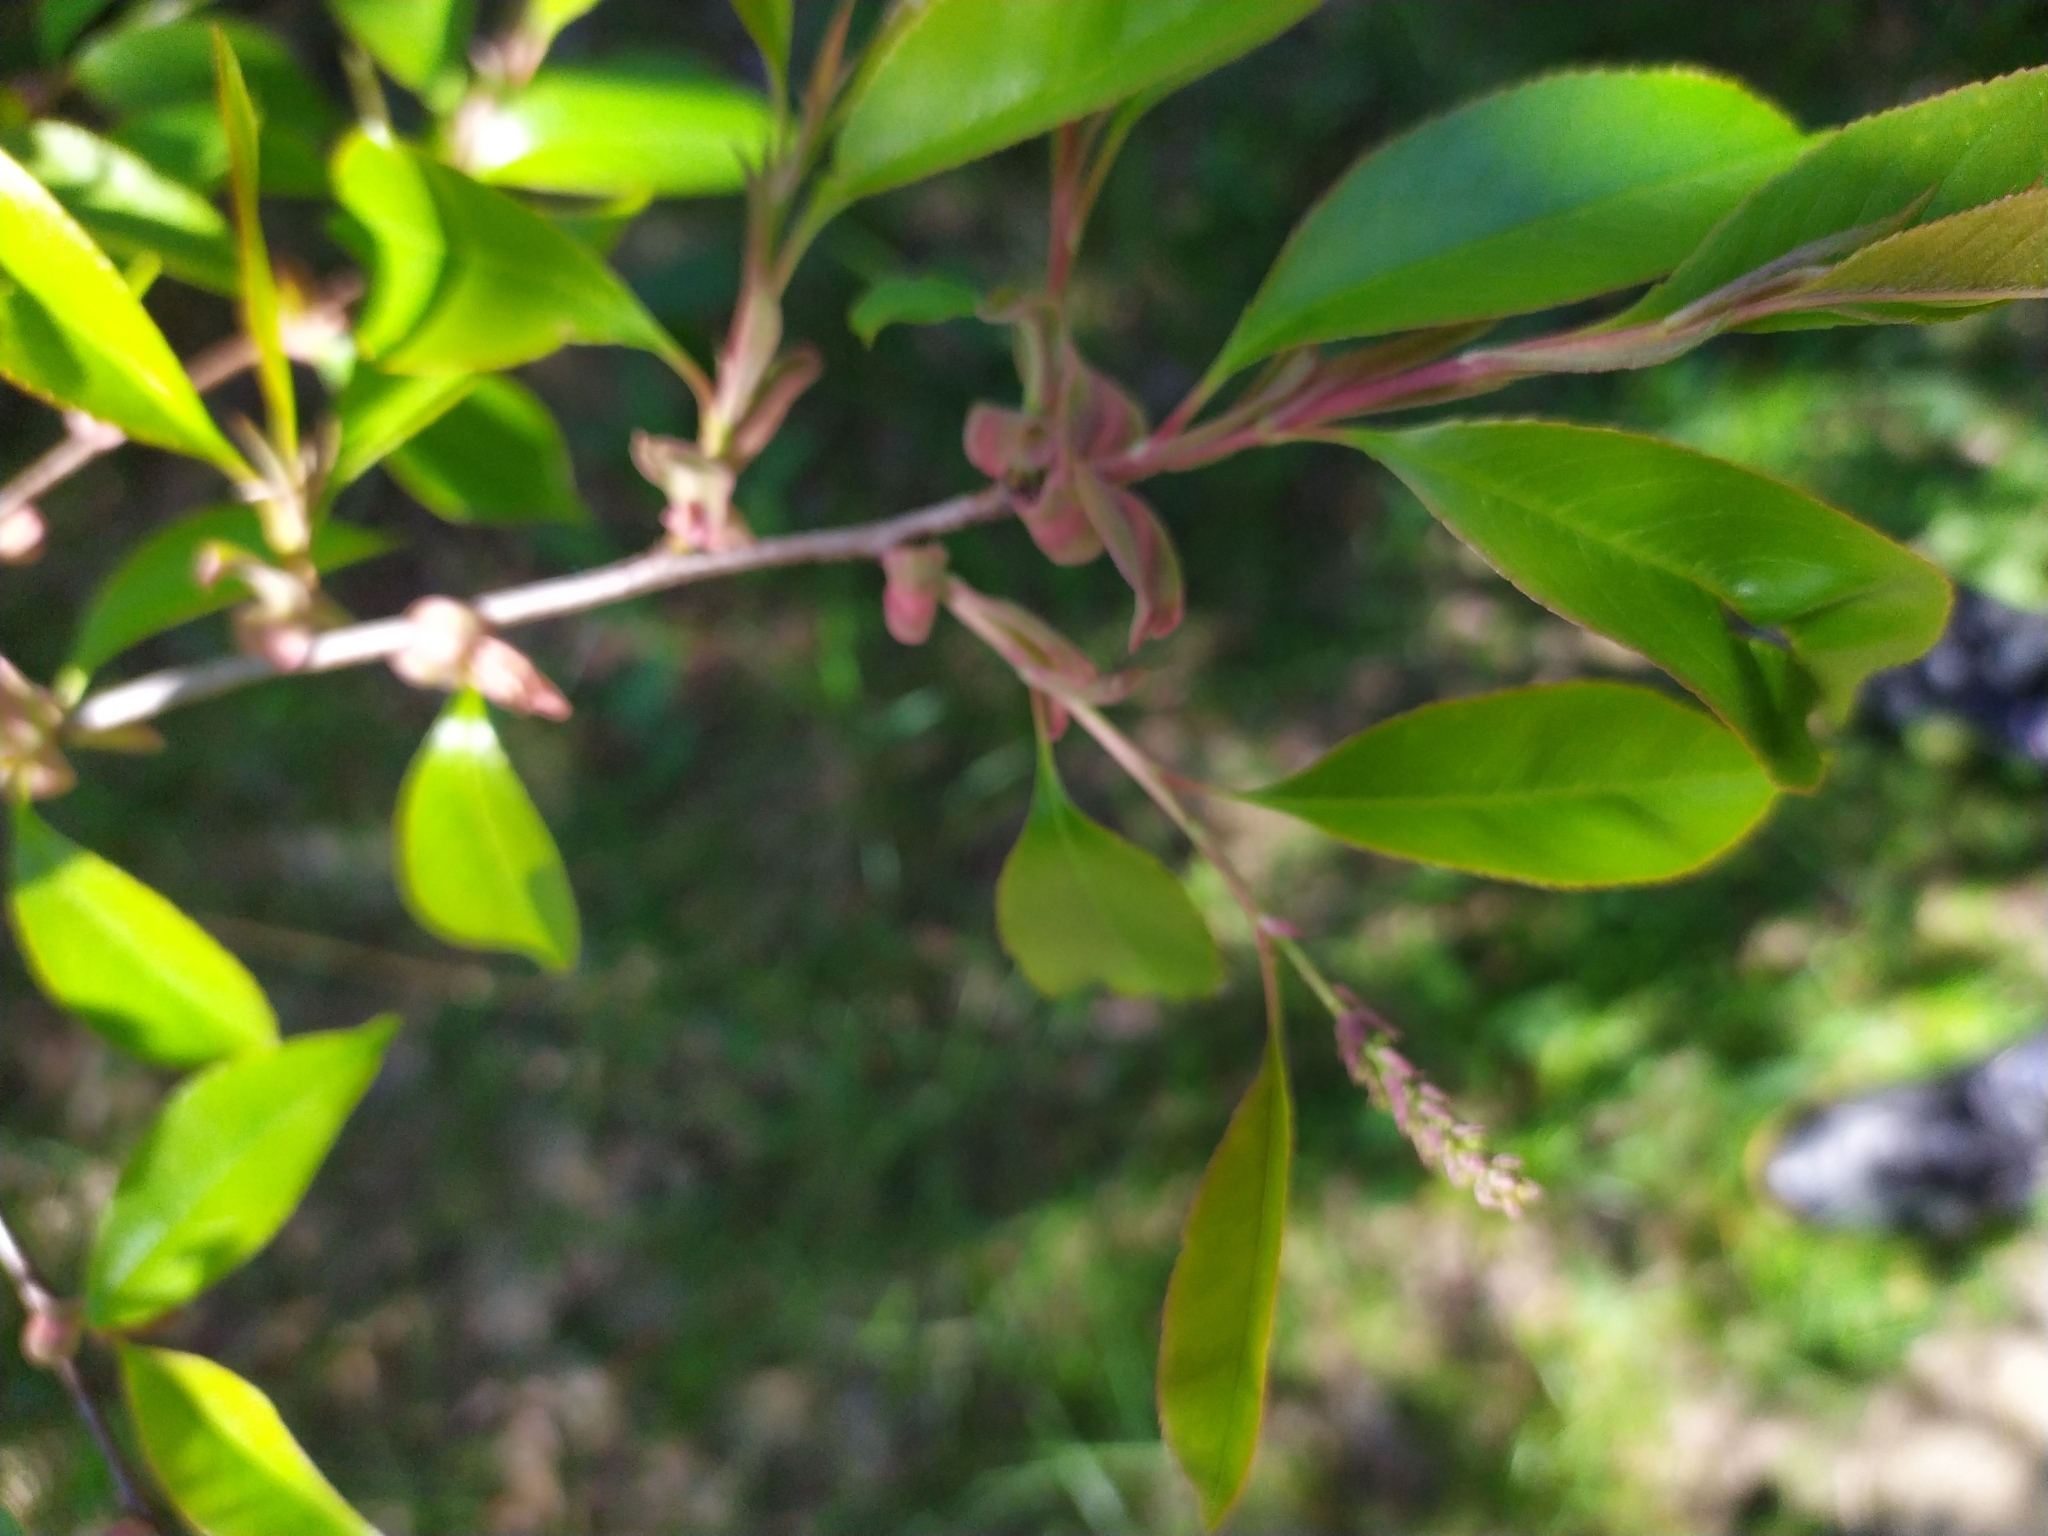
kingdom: Plantae
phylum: Tracheophyta
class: Magnoliopsida
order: Rosales
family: Rosaceae
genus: Prunus
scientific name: Prunus serotina
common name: Black cherry
